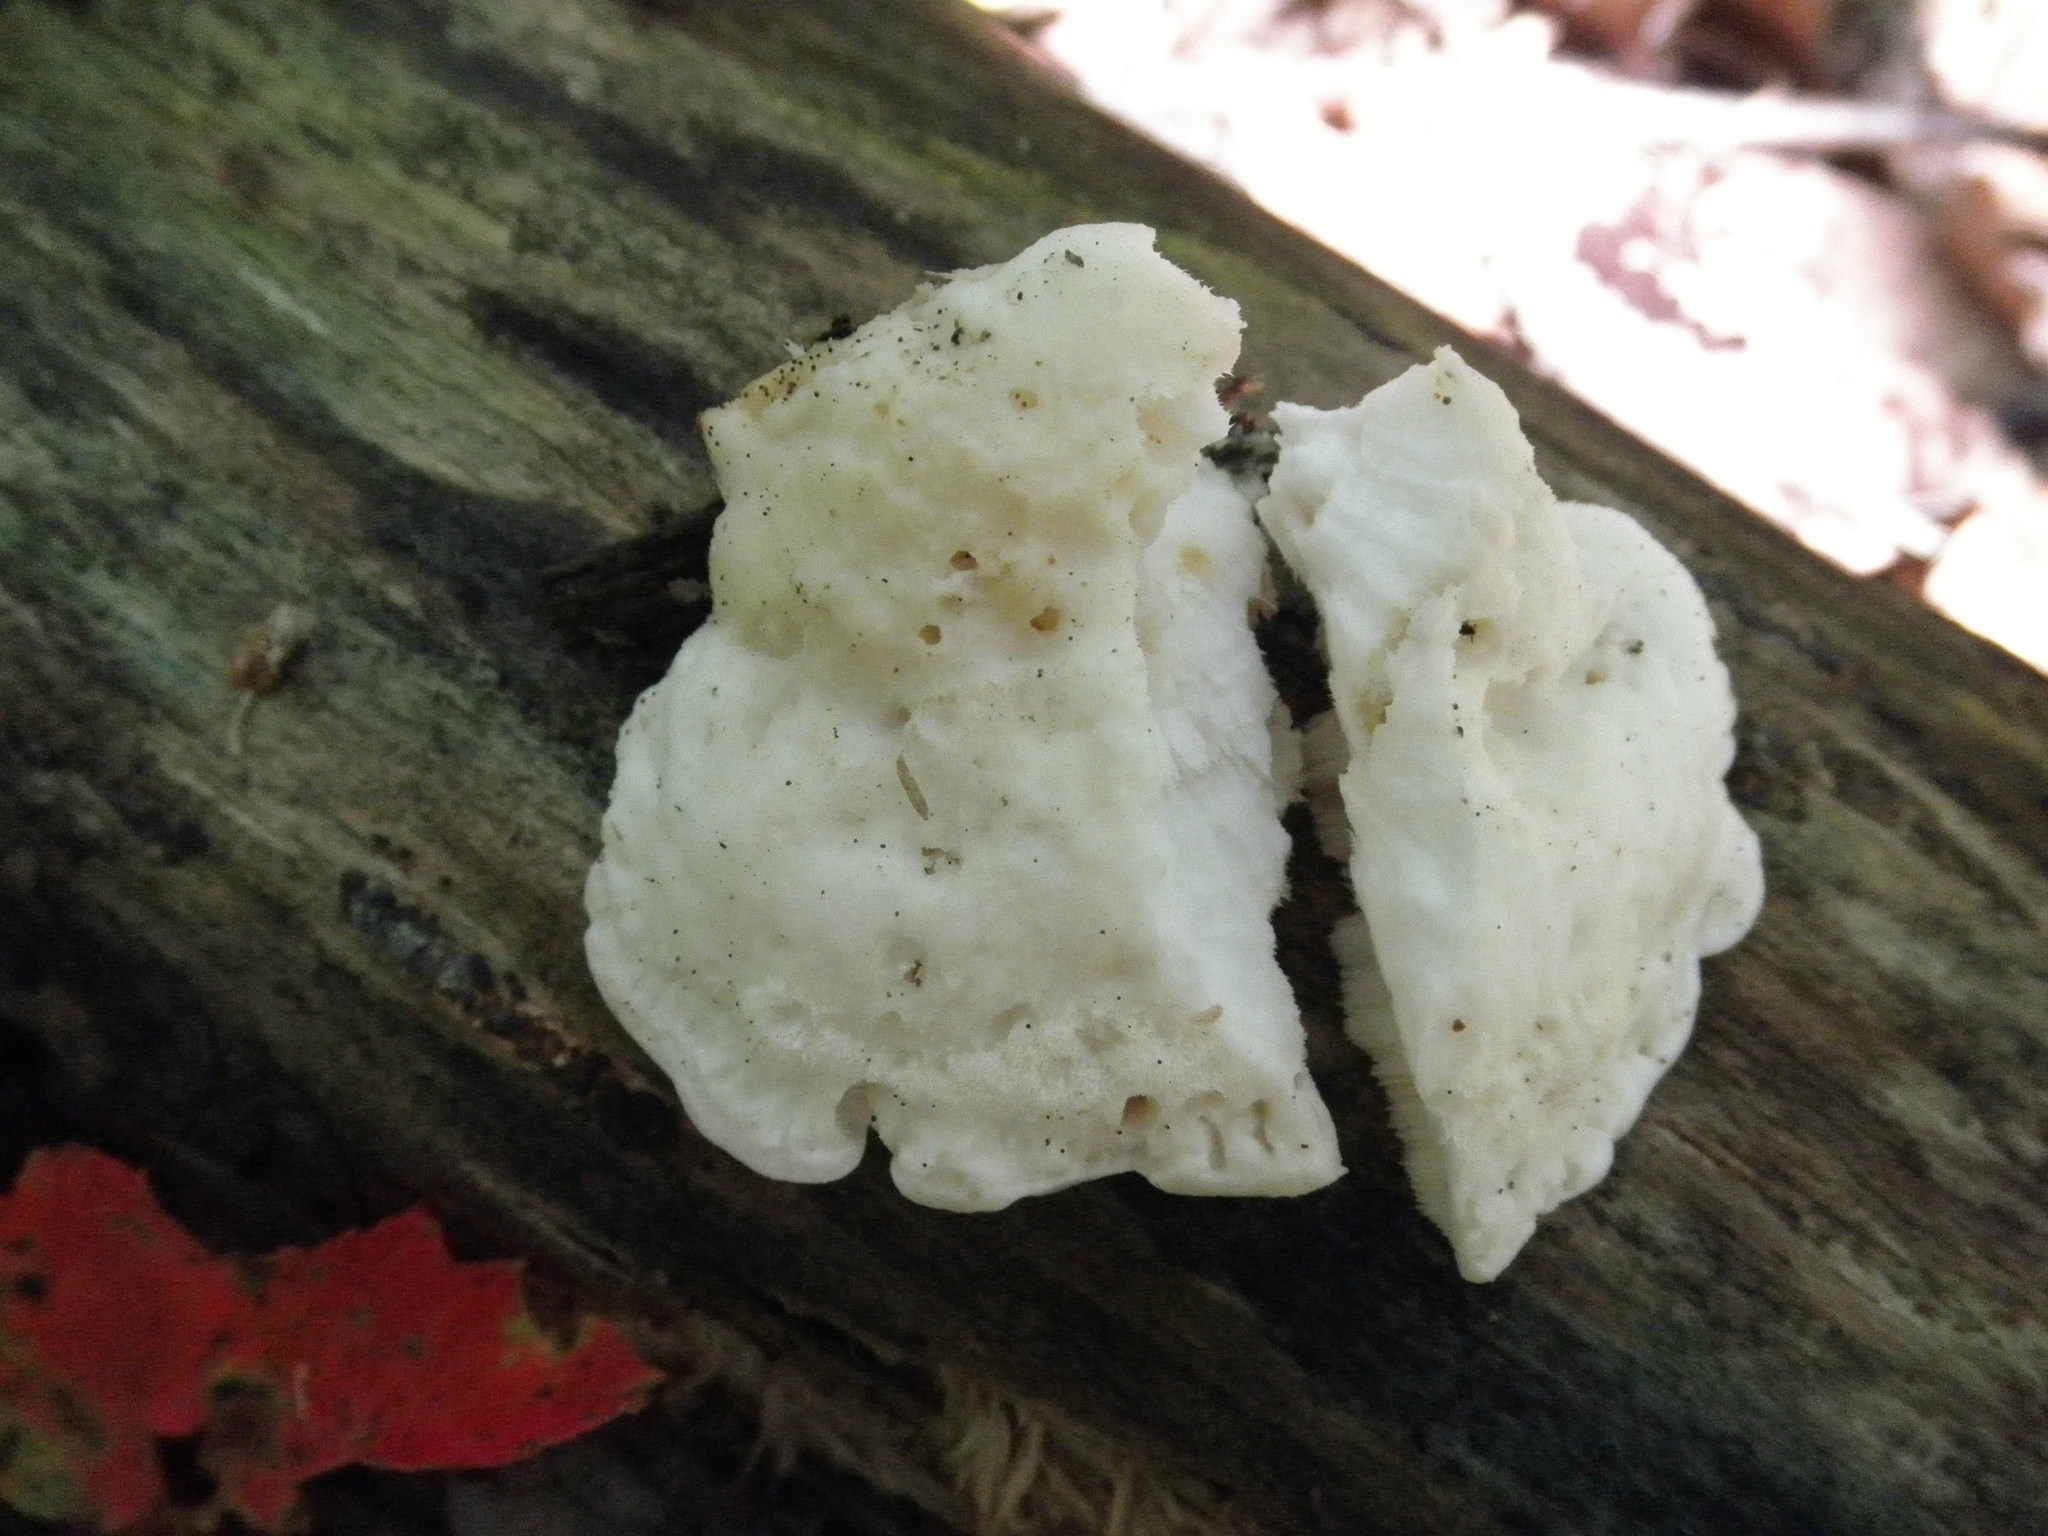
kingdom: Fungi
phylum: Basidiomycota
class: Agaricomycetes
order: Polyporales
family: Incrustoporiaceae
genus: Tyromyces
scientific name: Tyromyces chioneus
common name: White cheese polypore
